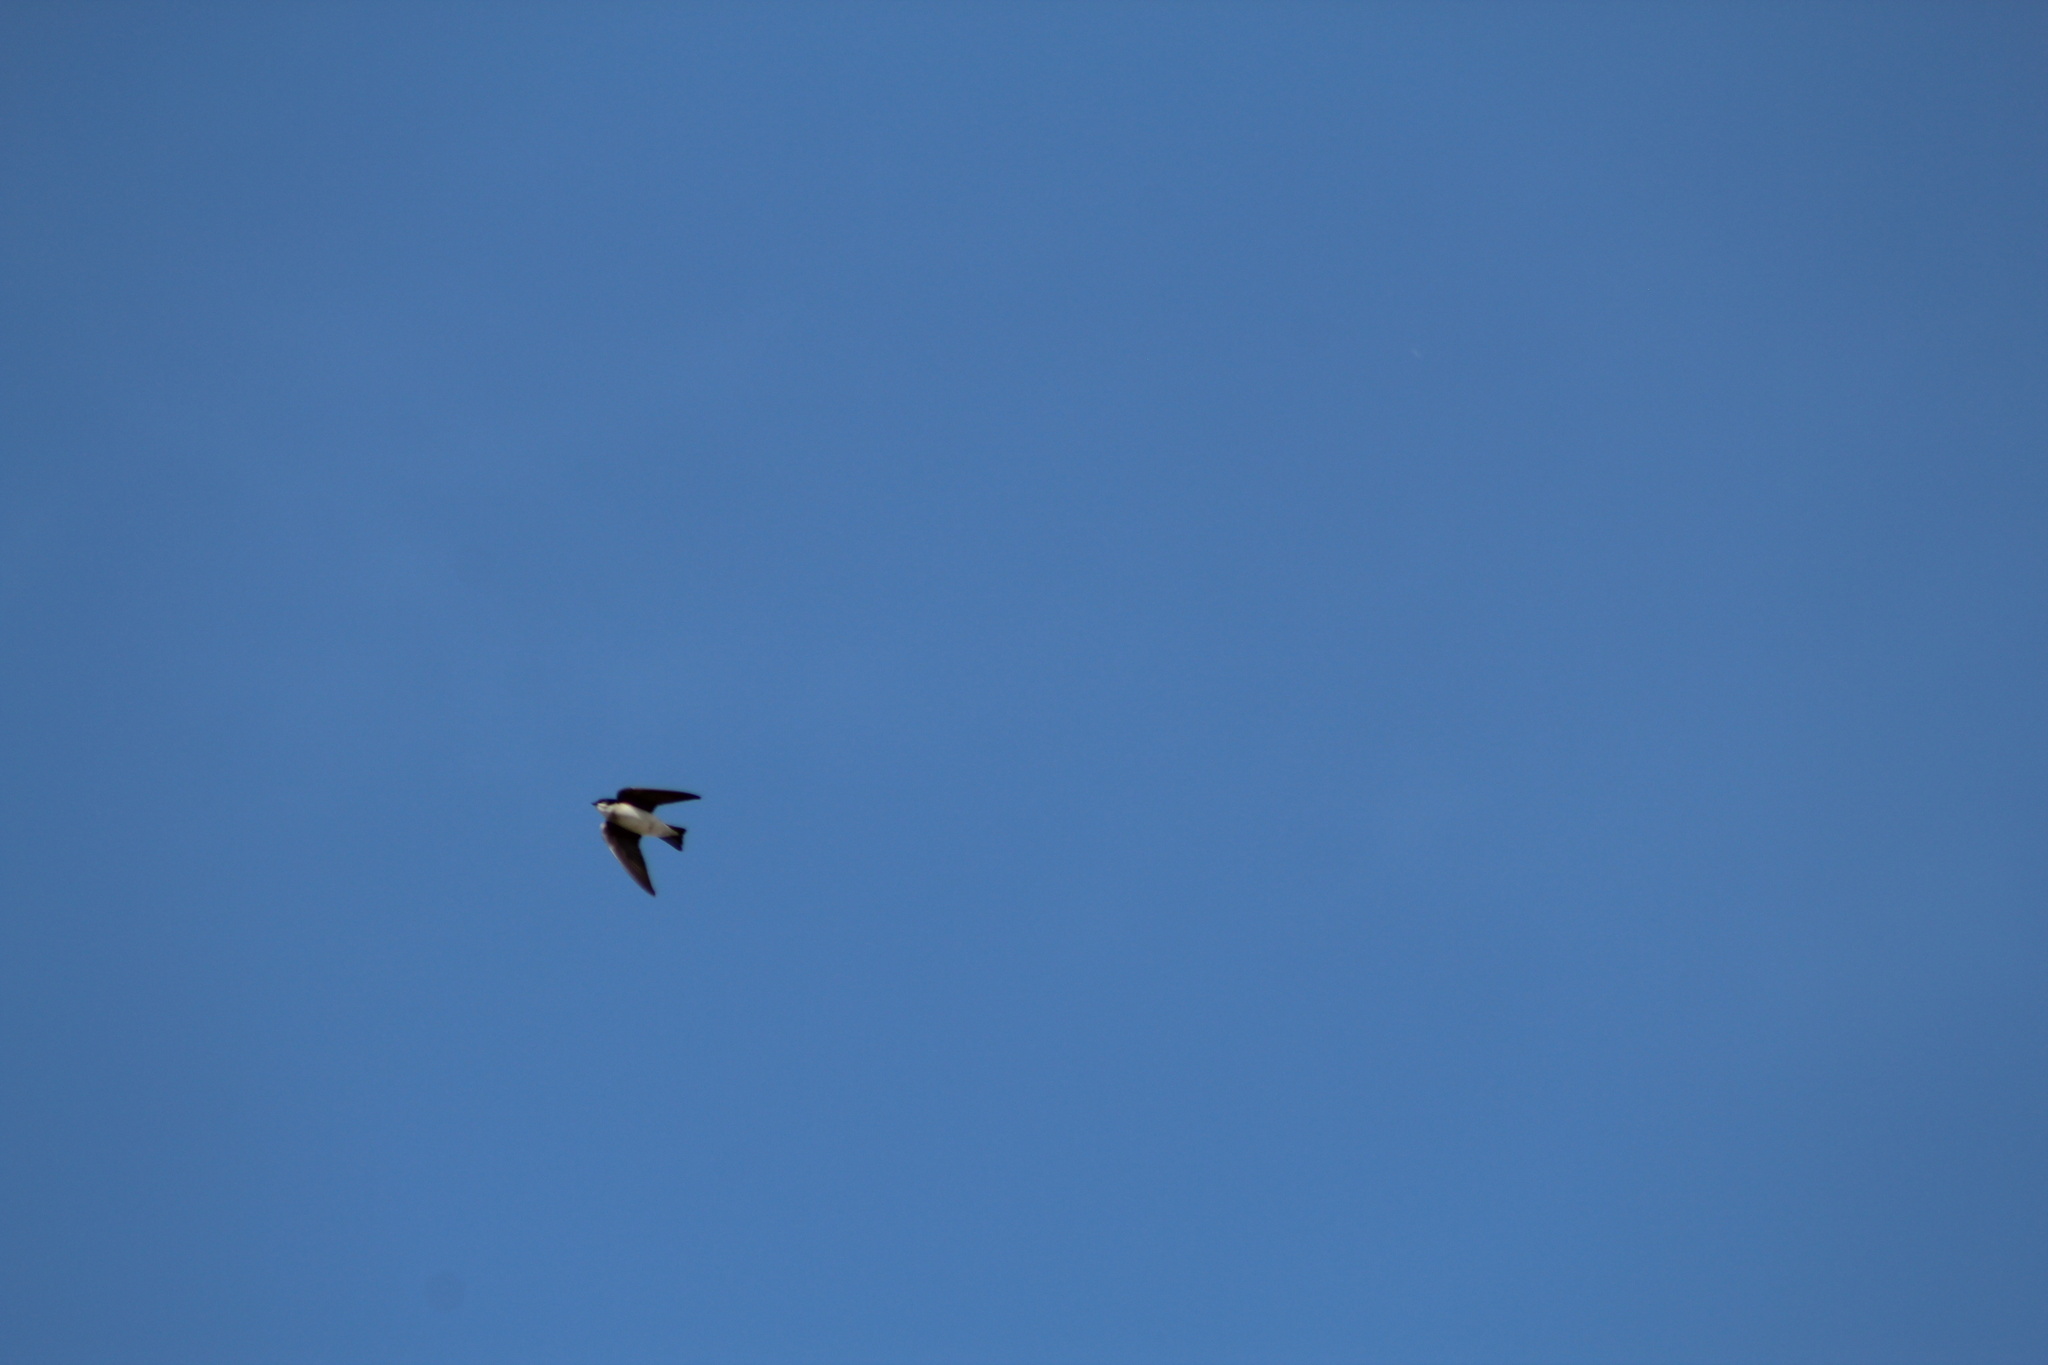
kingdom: Animalia
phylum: Chordata
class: Aves
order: Passeriformes
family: Hirundinidae
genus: Tachycineta
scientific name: Tachycineta bicolor
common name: Tree swallow
